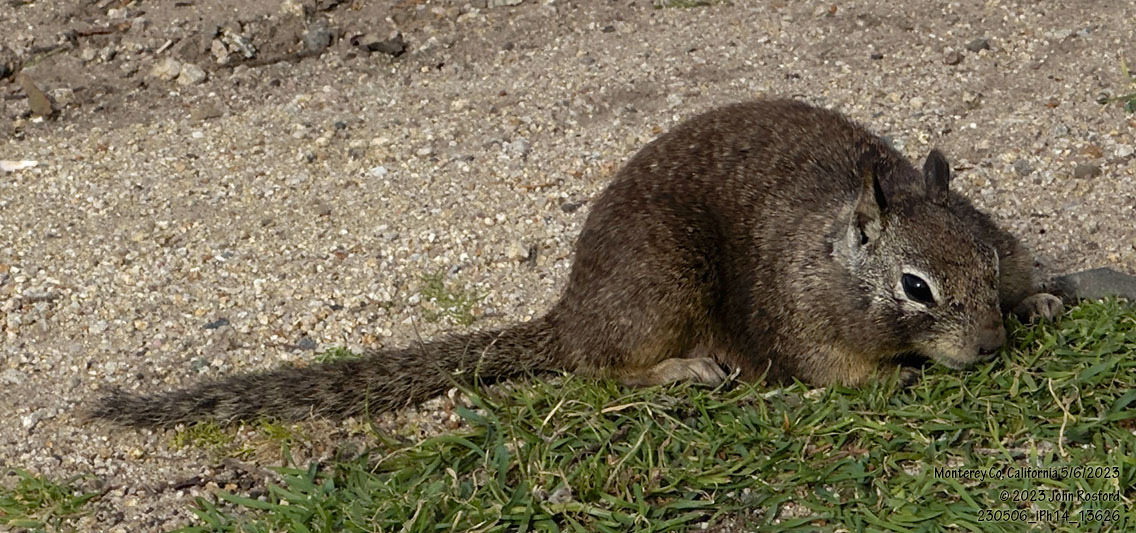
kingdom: Animalia
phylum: Chordata
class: Mammalia
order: Rodentia
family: Sciuridae
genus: Otospermophilus
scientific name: Otospermophilus beecheyi
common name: California ground squirrel
